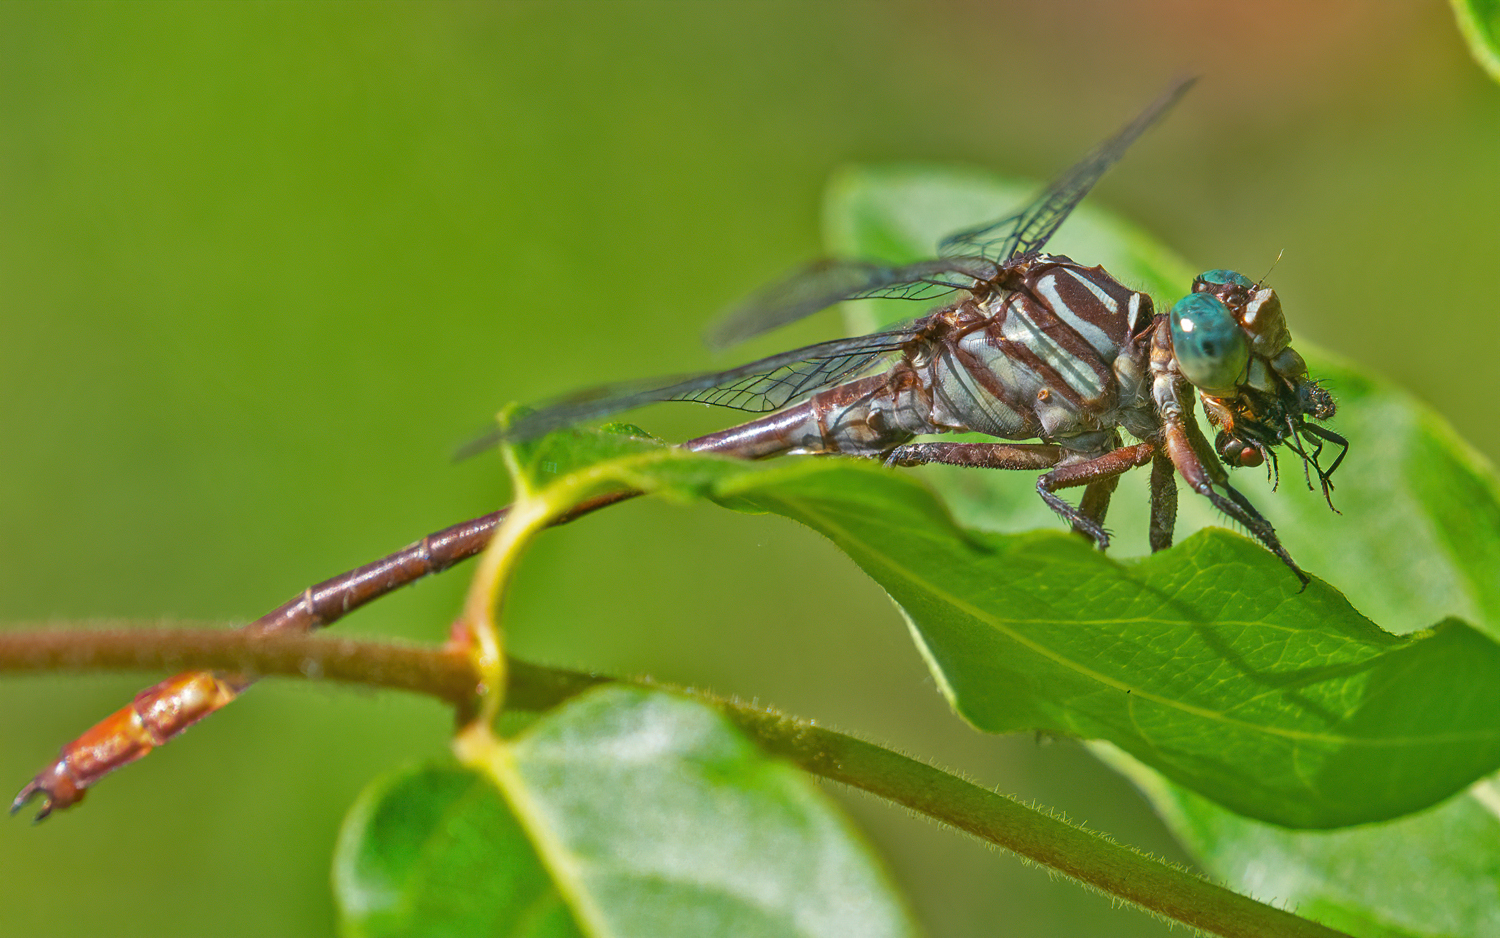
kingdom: Animalia
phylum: Arthropoda
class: Insecta
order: Odonata
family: Gomphidae
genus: Stylurus
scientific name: Stylurus plagiatus
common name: Russet-tipped clubtail
